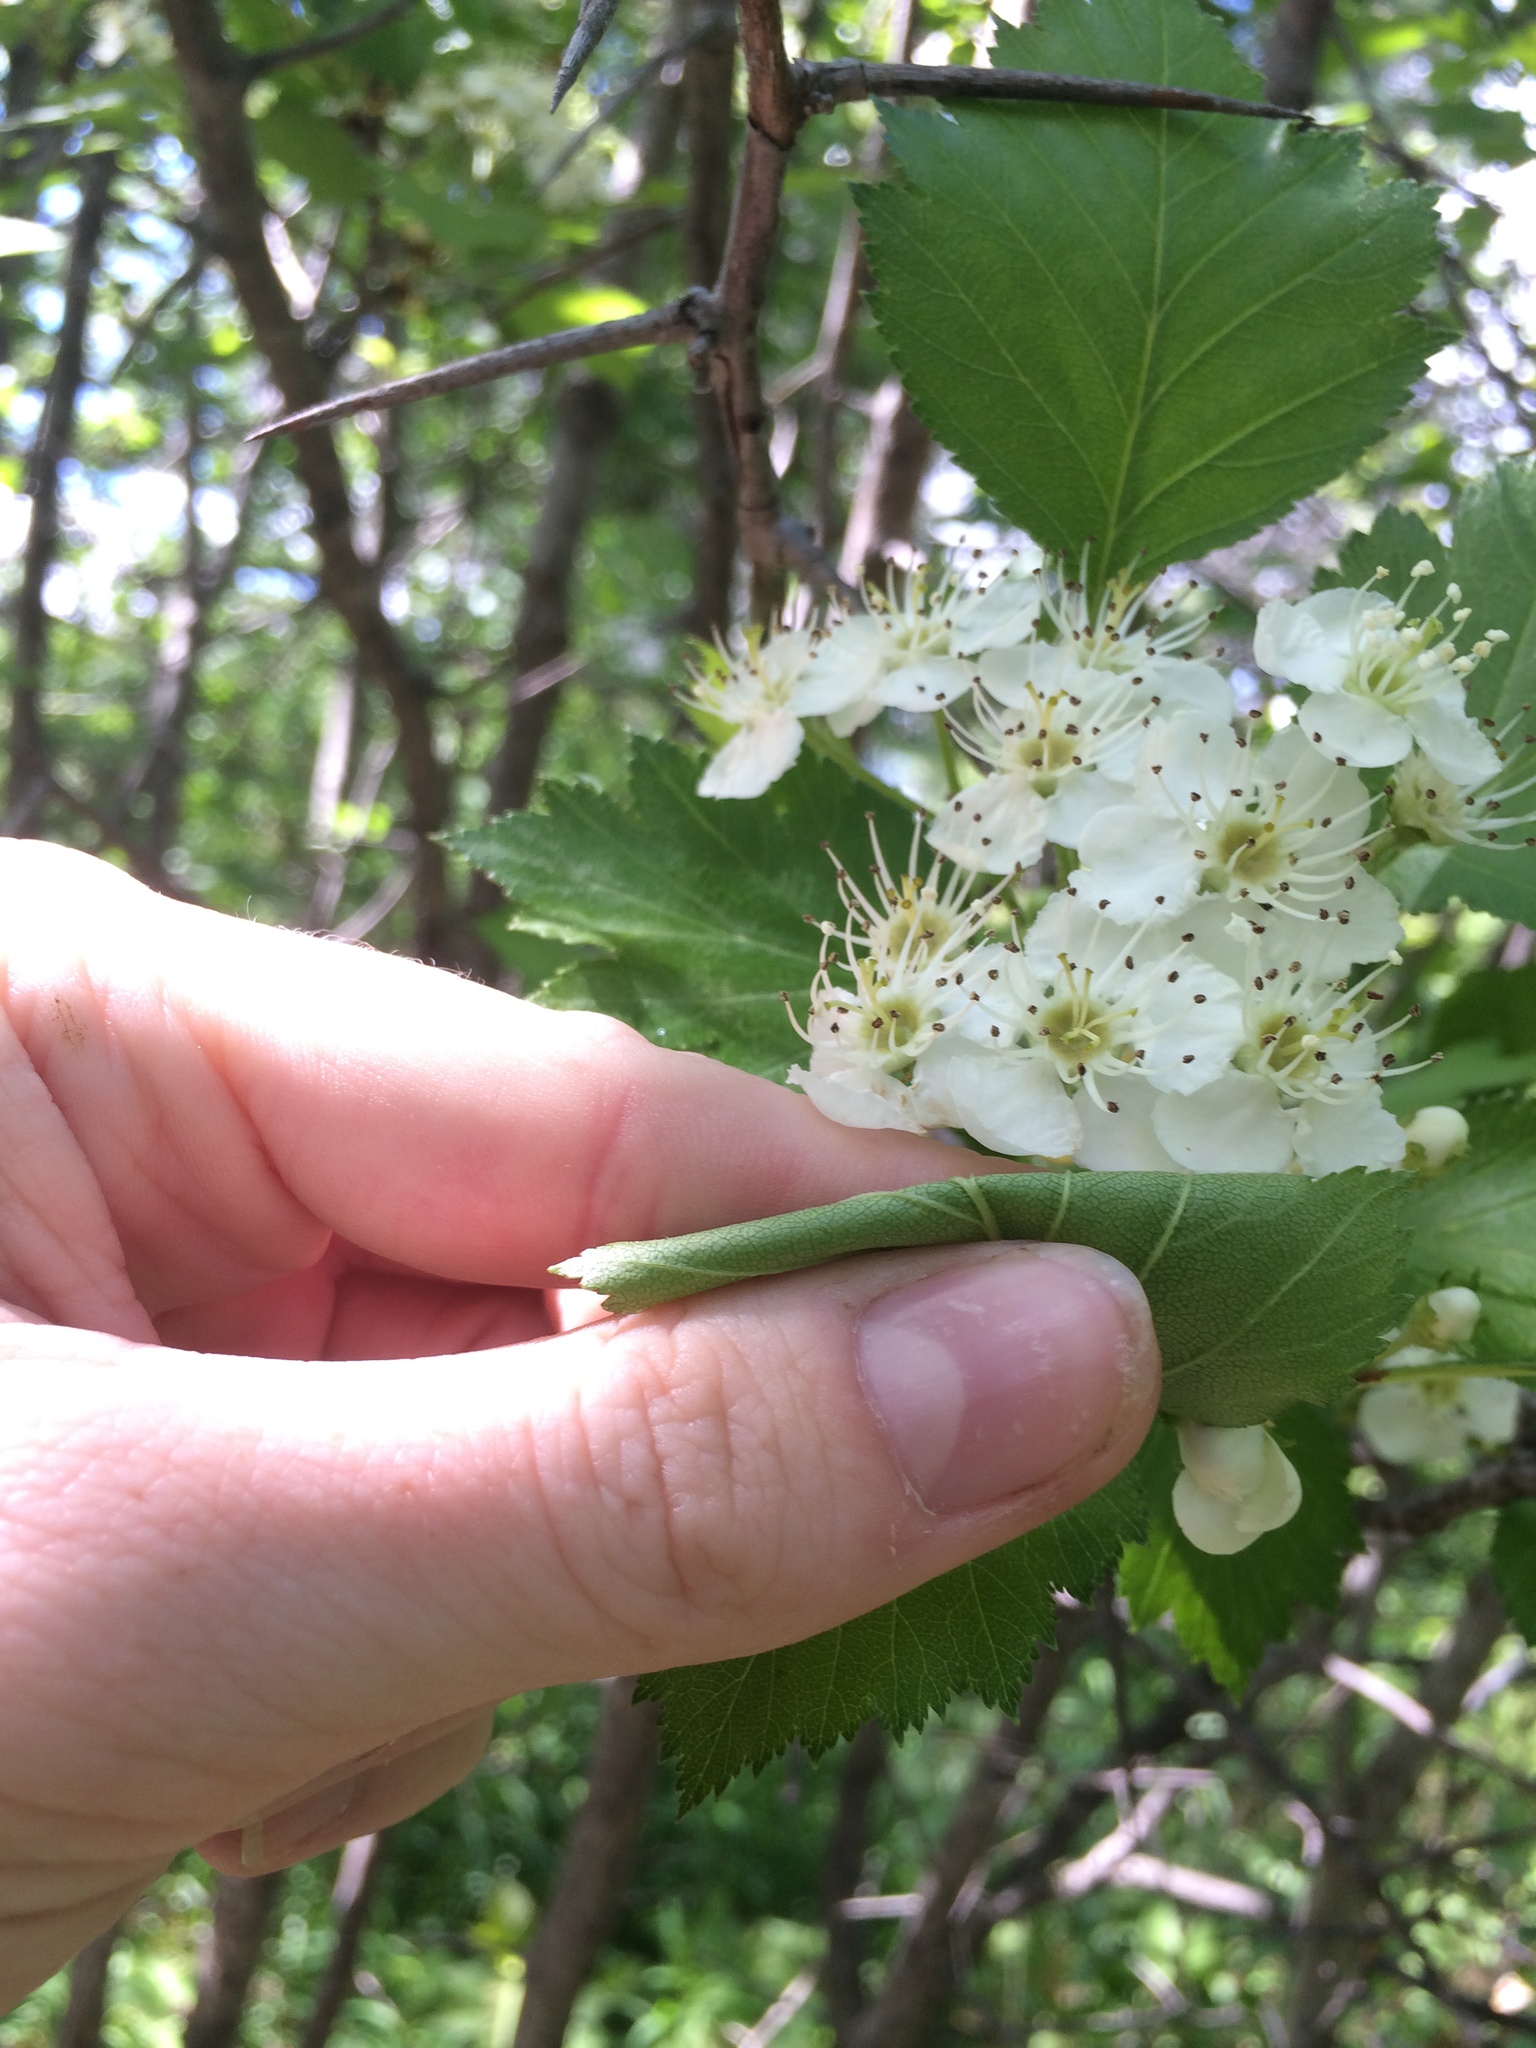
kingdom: Plantae
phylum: Tracheophyta
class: Magnoliopsida
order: Rosales
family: Rosaceae
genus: Crataegus
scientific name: Crataegus irrasa
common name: Unshorn hawthorn
